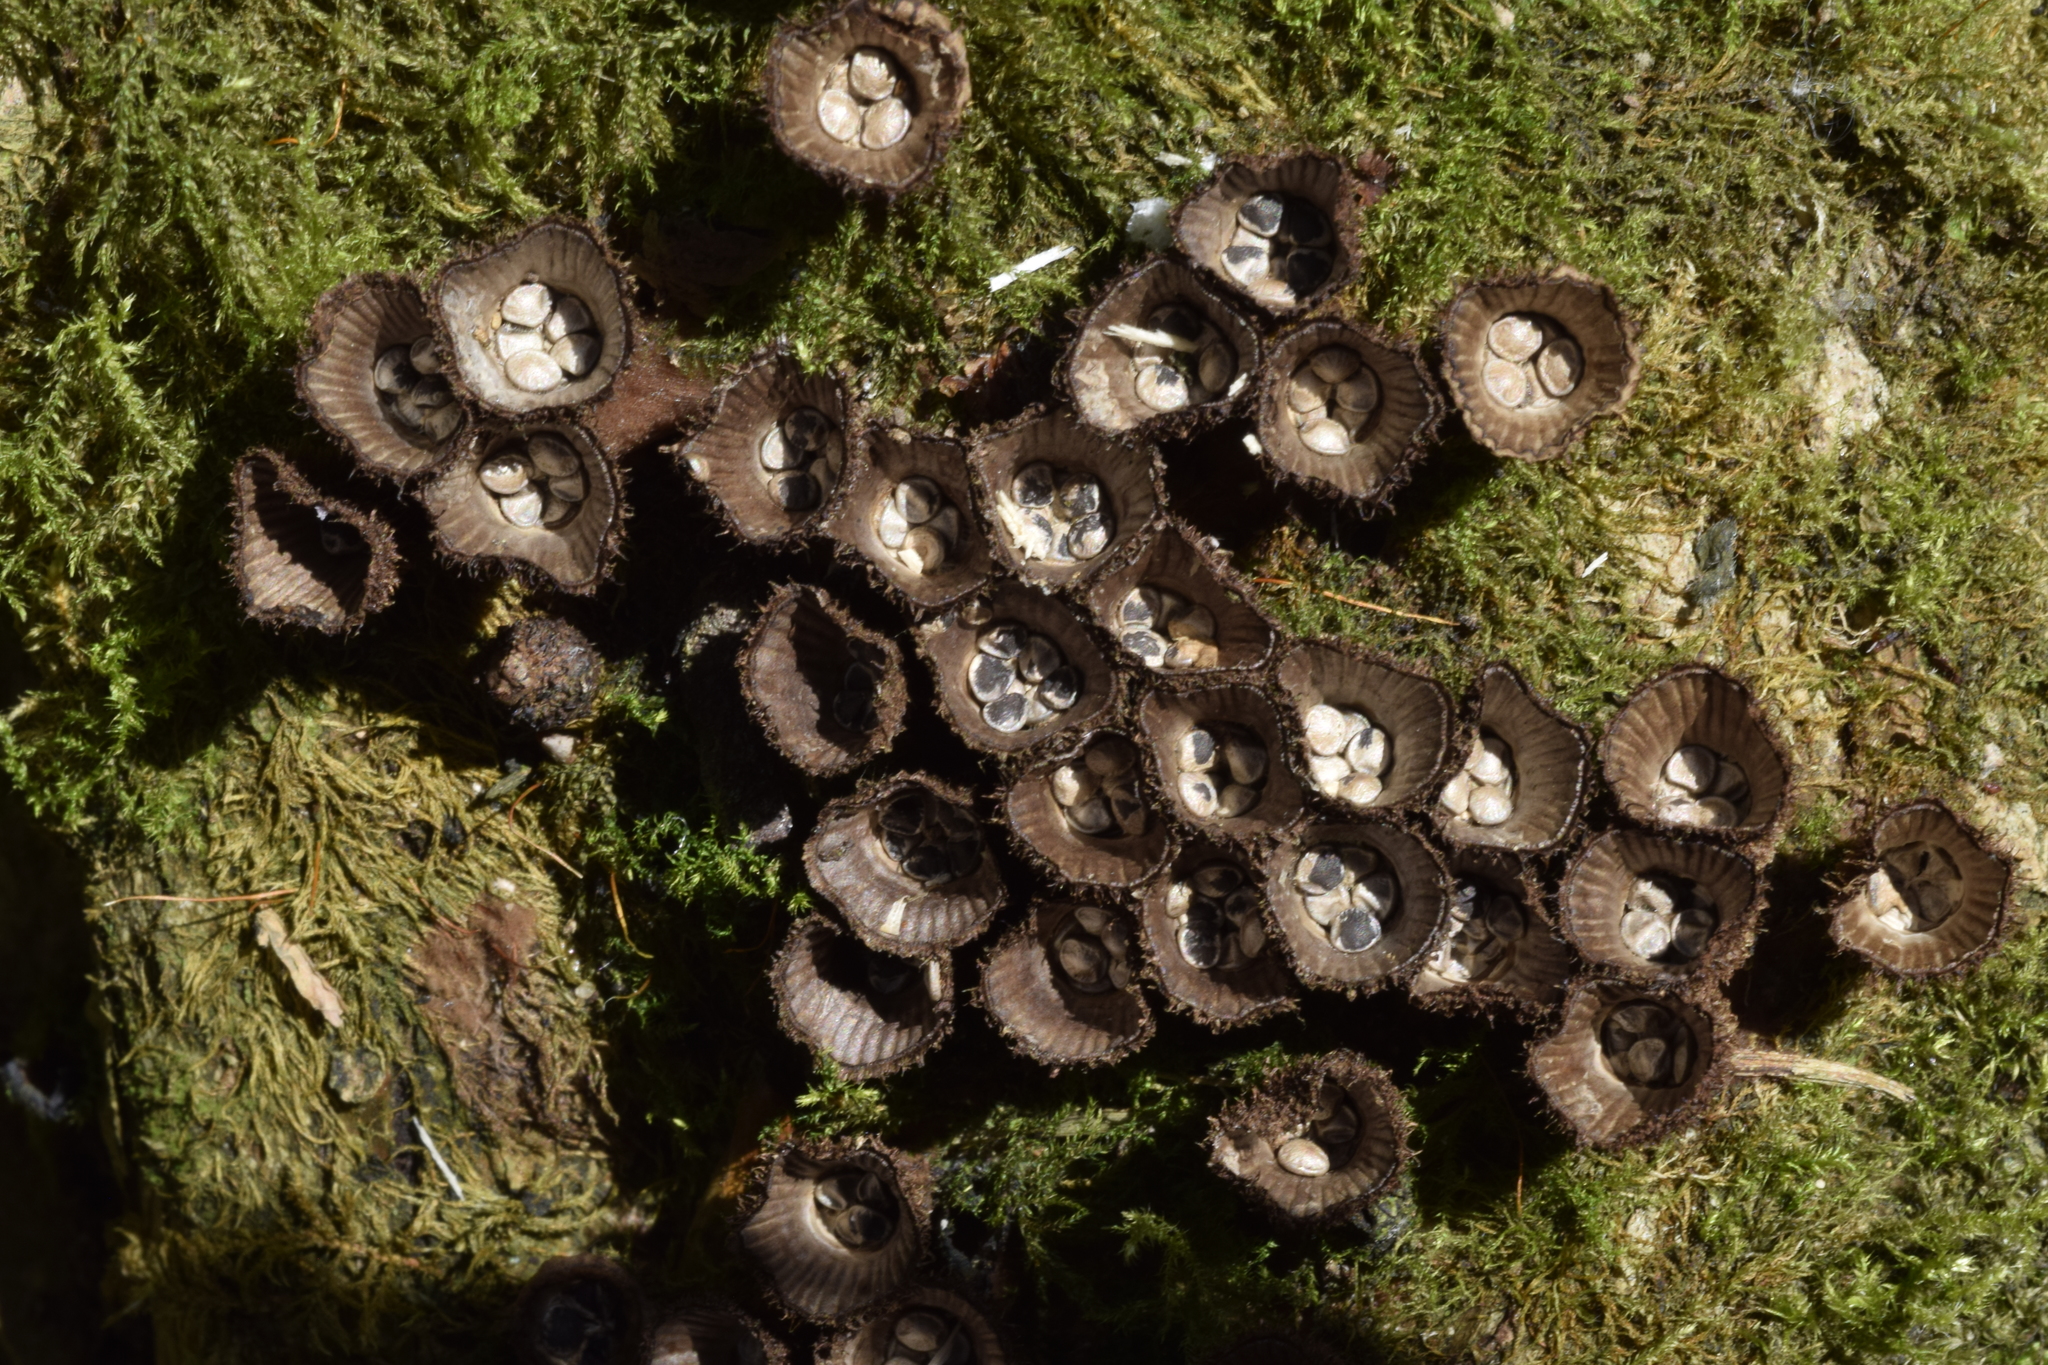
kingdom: Fungi
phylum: Basidiomycota
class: Agaricomycetes
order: Agaricales
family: Agaricaceae
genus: Cyathus
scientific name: Cyathus striatus
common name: Fluted bird's nest
